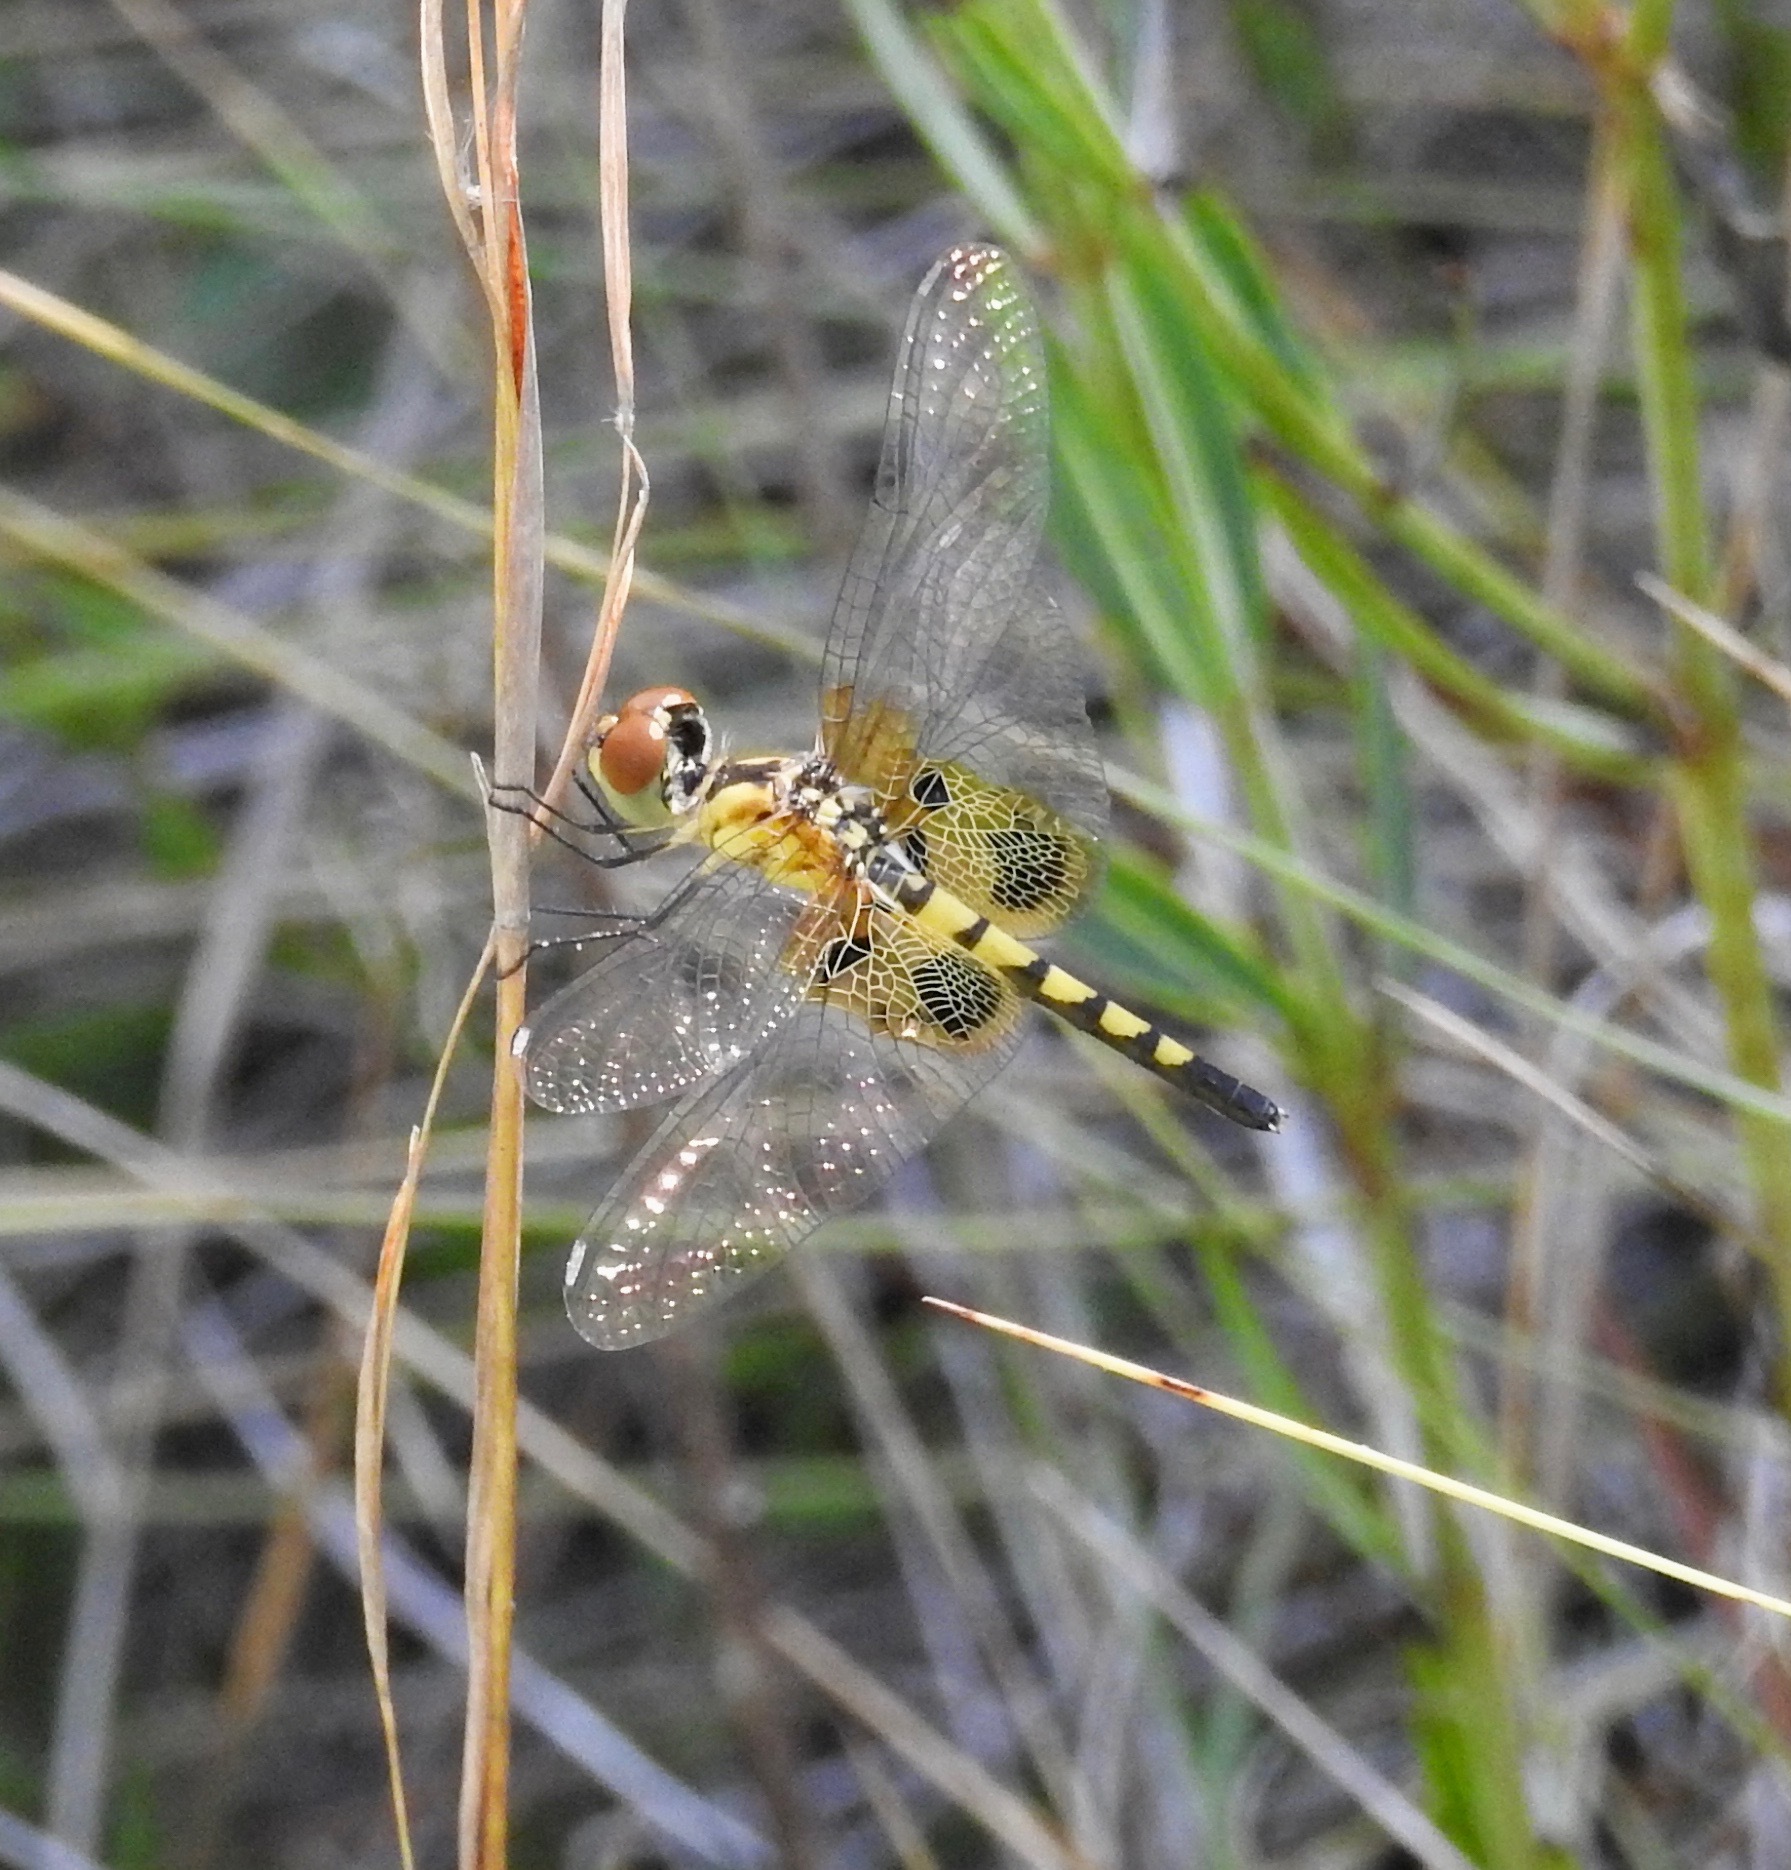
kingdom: Animalia
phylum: Arthropoda
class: Insecta
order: Odonata
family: Libellulidae
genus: Celithemis
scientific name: Celithemis amanda
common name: Amanda's pennant
